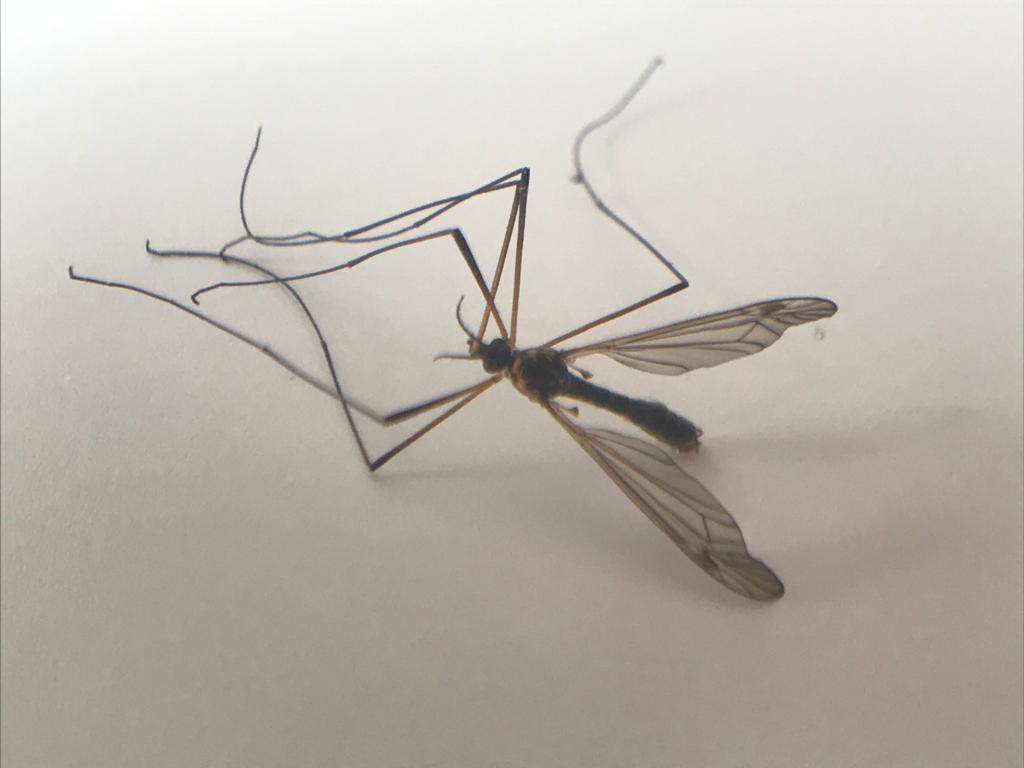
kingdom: Animalia
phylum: Arthropoda
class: Insecta
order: Diptera
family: Tipulidae
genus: Nephrotoma
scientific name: Nephrotoma appendiculata
